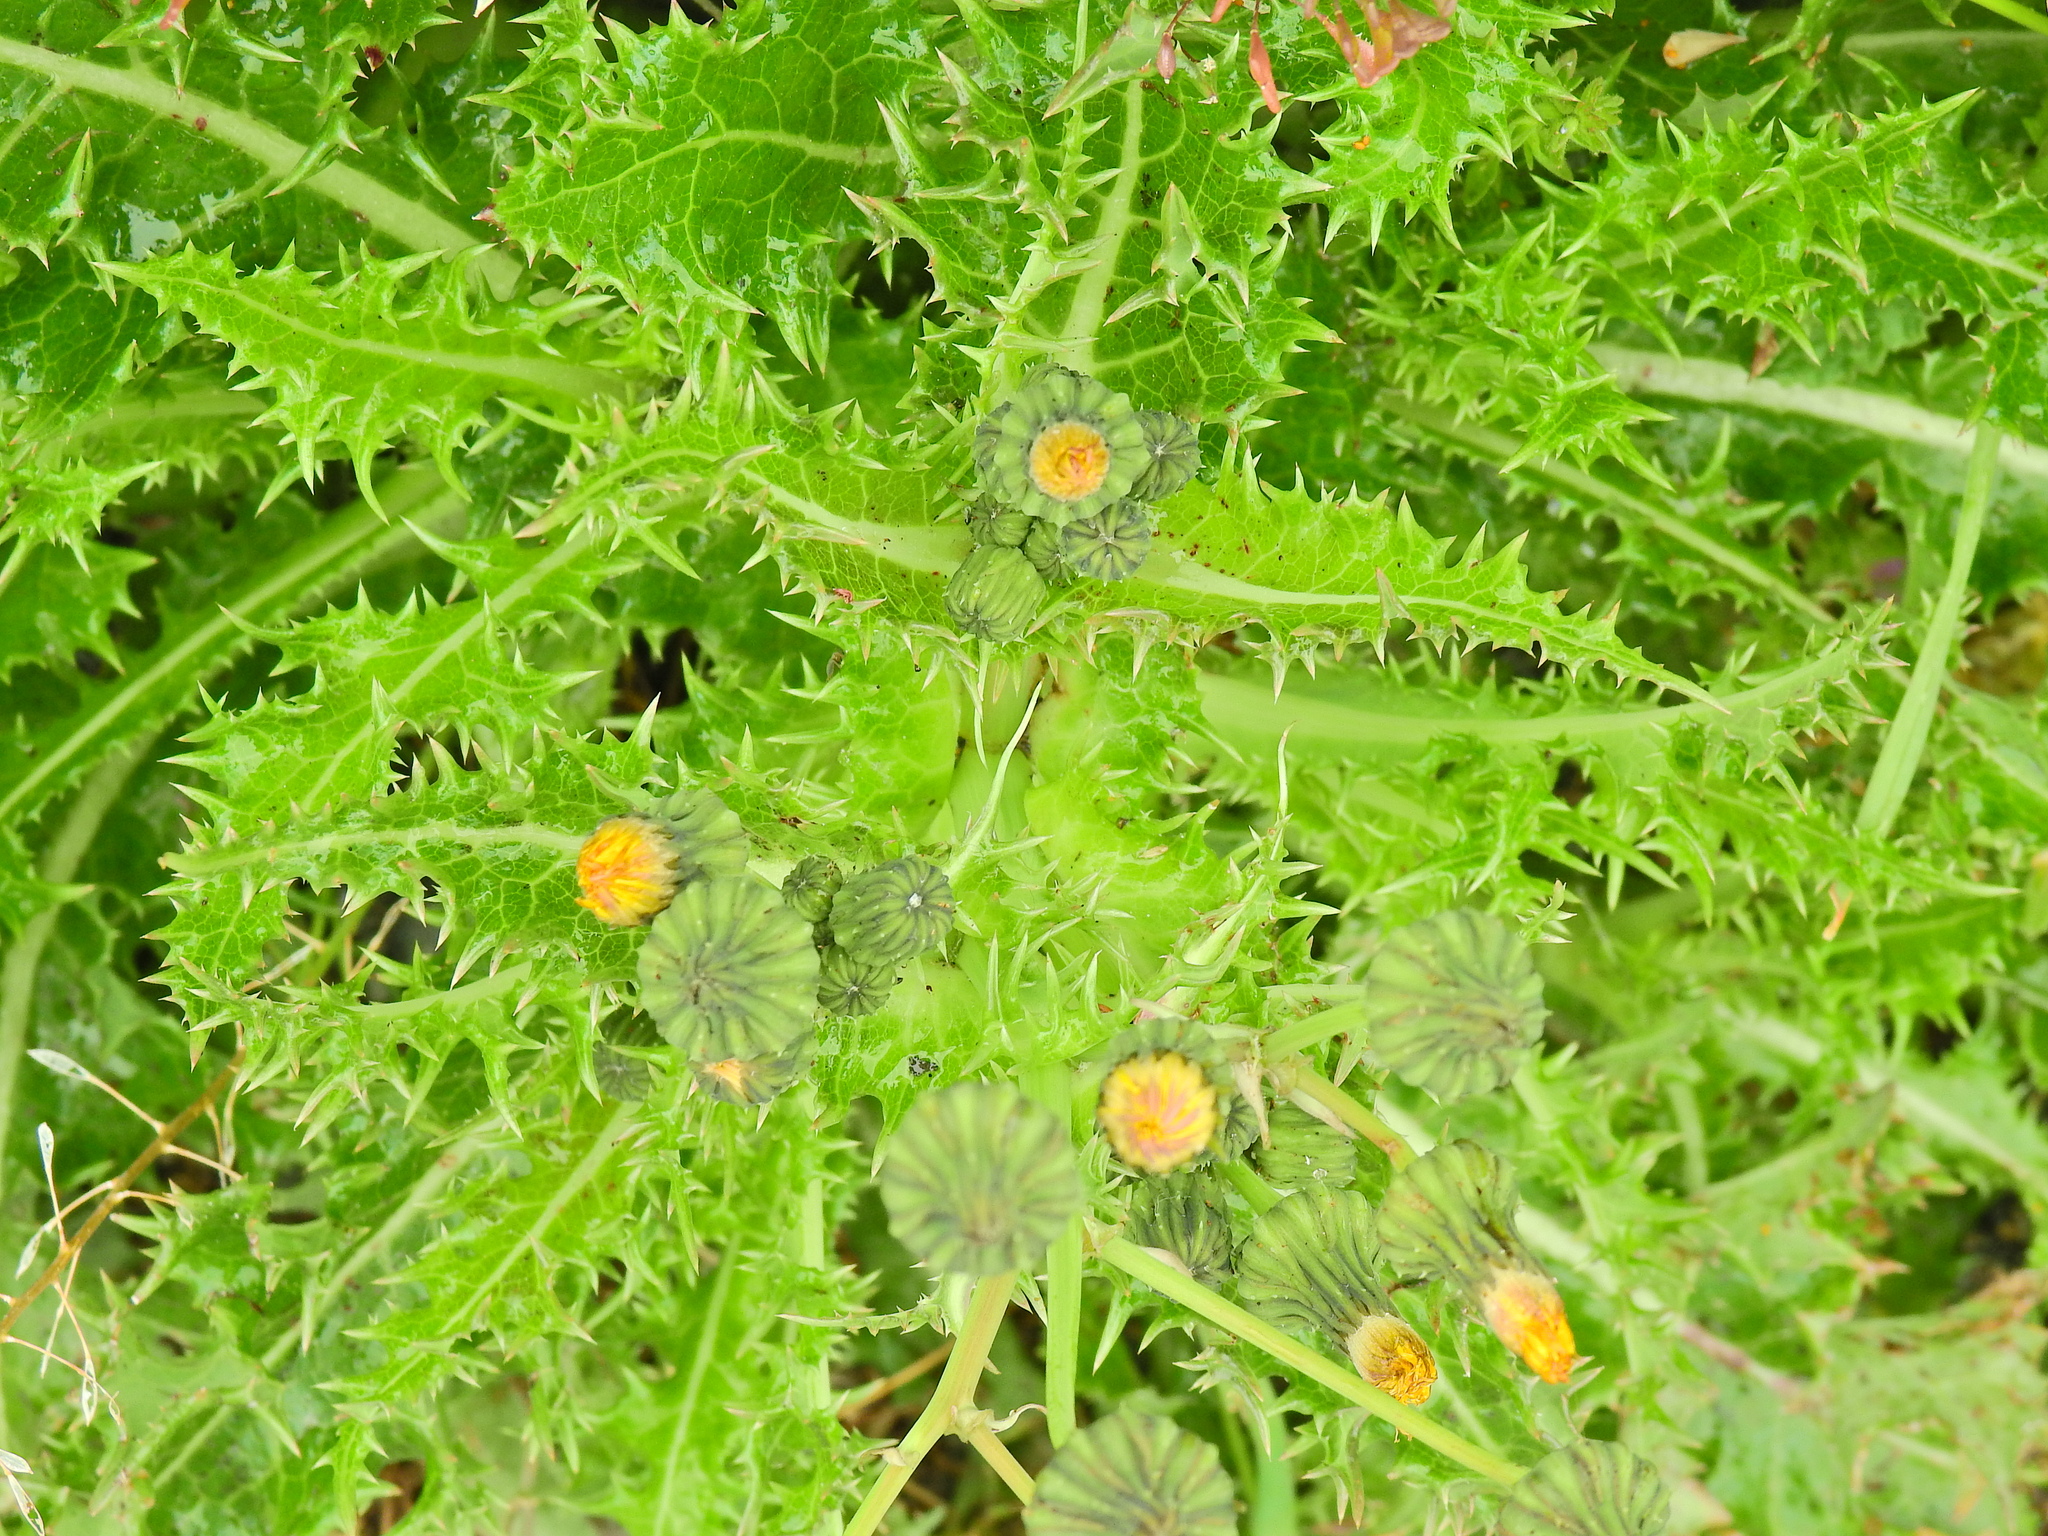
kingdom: Plantae
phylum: Tracheophyta
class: Magnoliopsida
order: Asterales
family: Asteraceae
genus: Sonchus
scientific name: Sonchus asper
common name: Prickly sow-thistle
